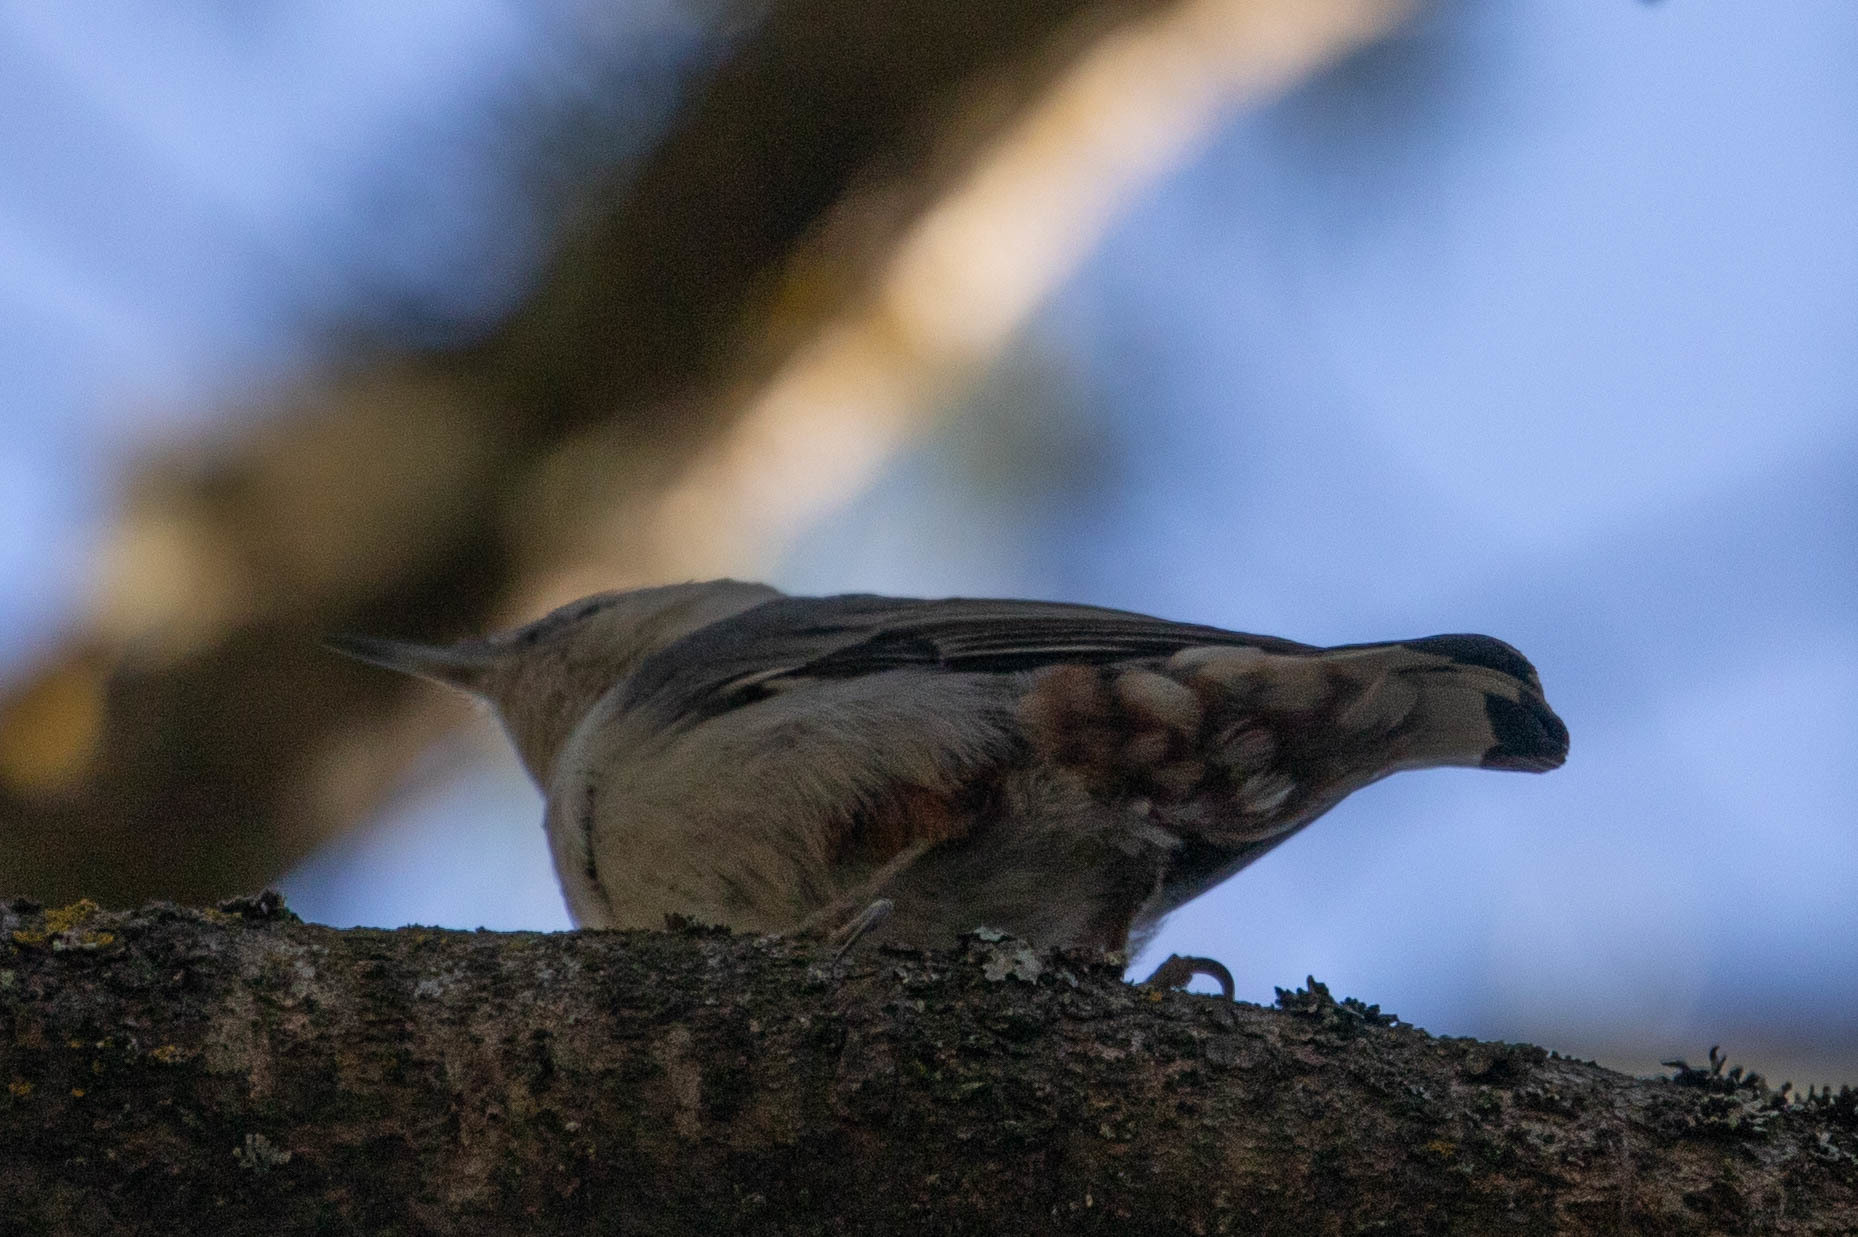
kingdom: Animalia
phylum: Chordata
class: Aves
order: Passeriformes
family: Sittidae
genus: Sitta
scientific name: Sitta carolinensis
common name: White-breasted nuthatch
